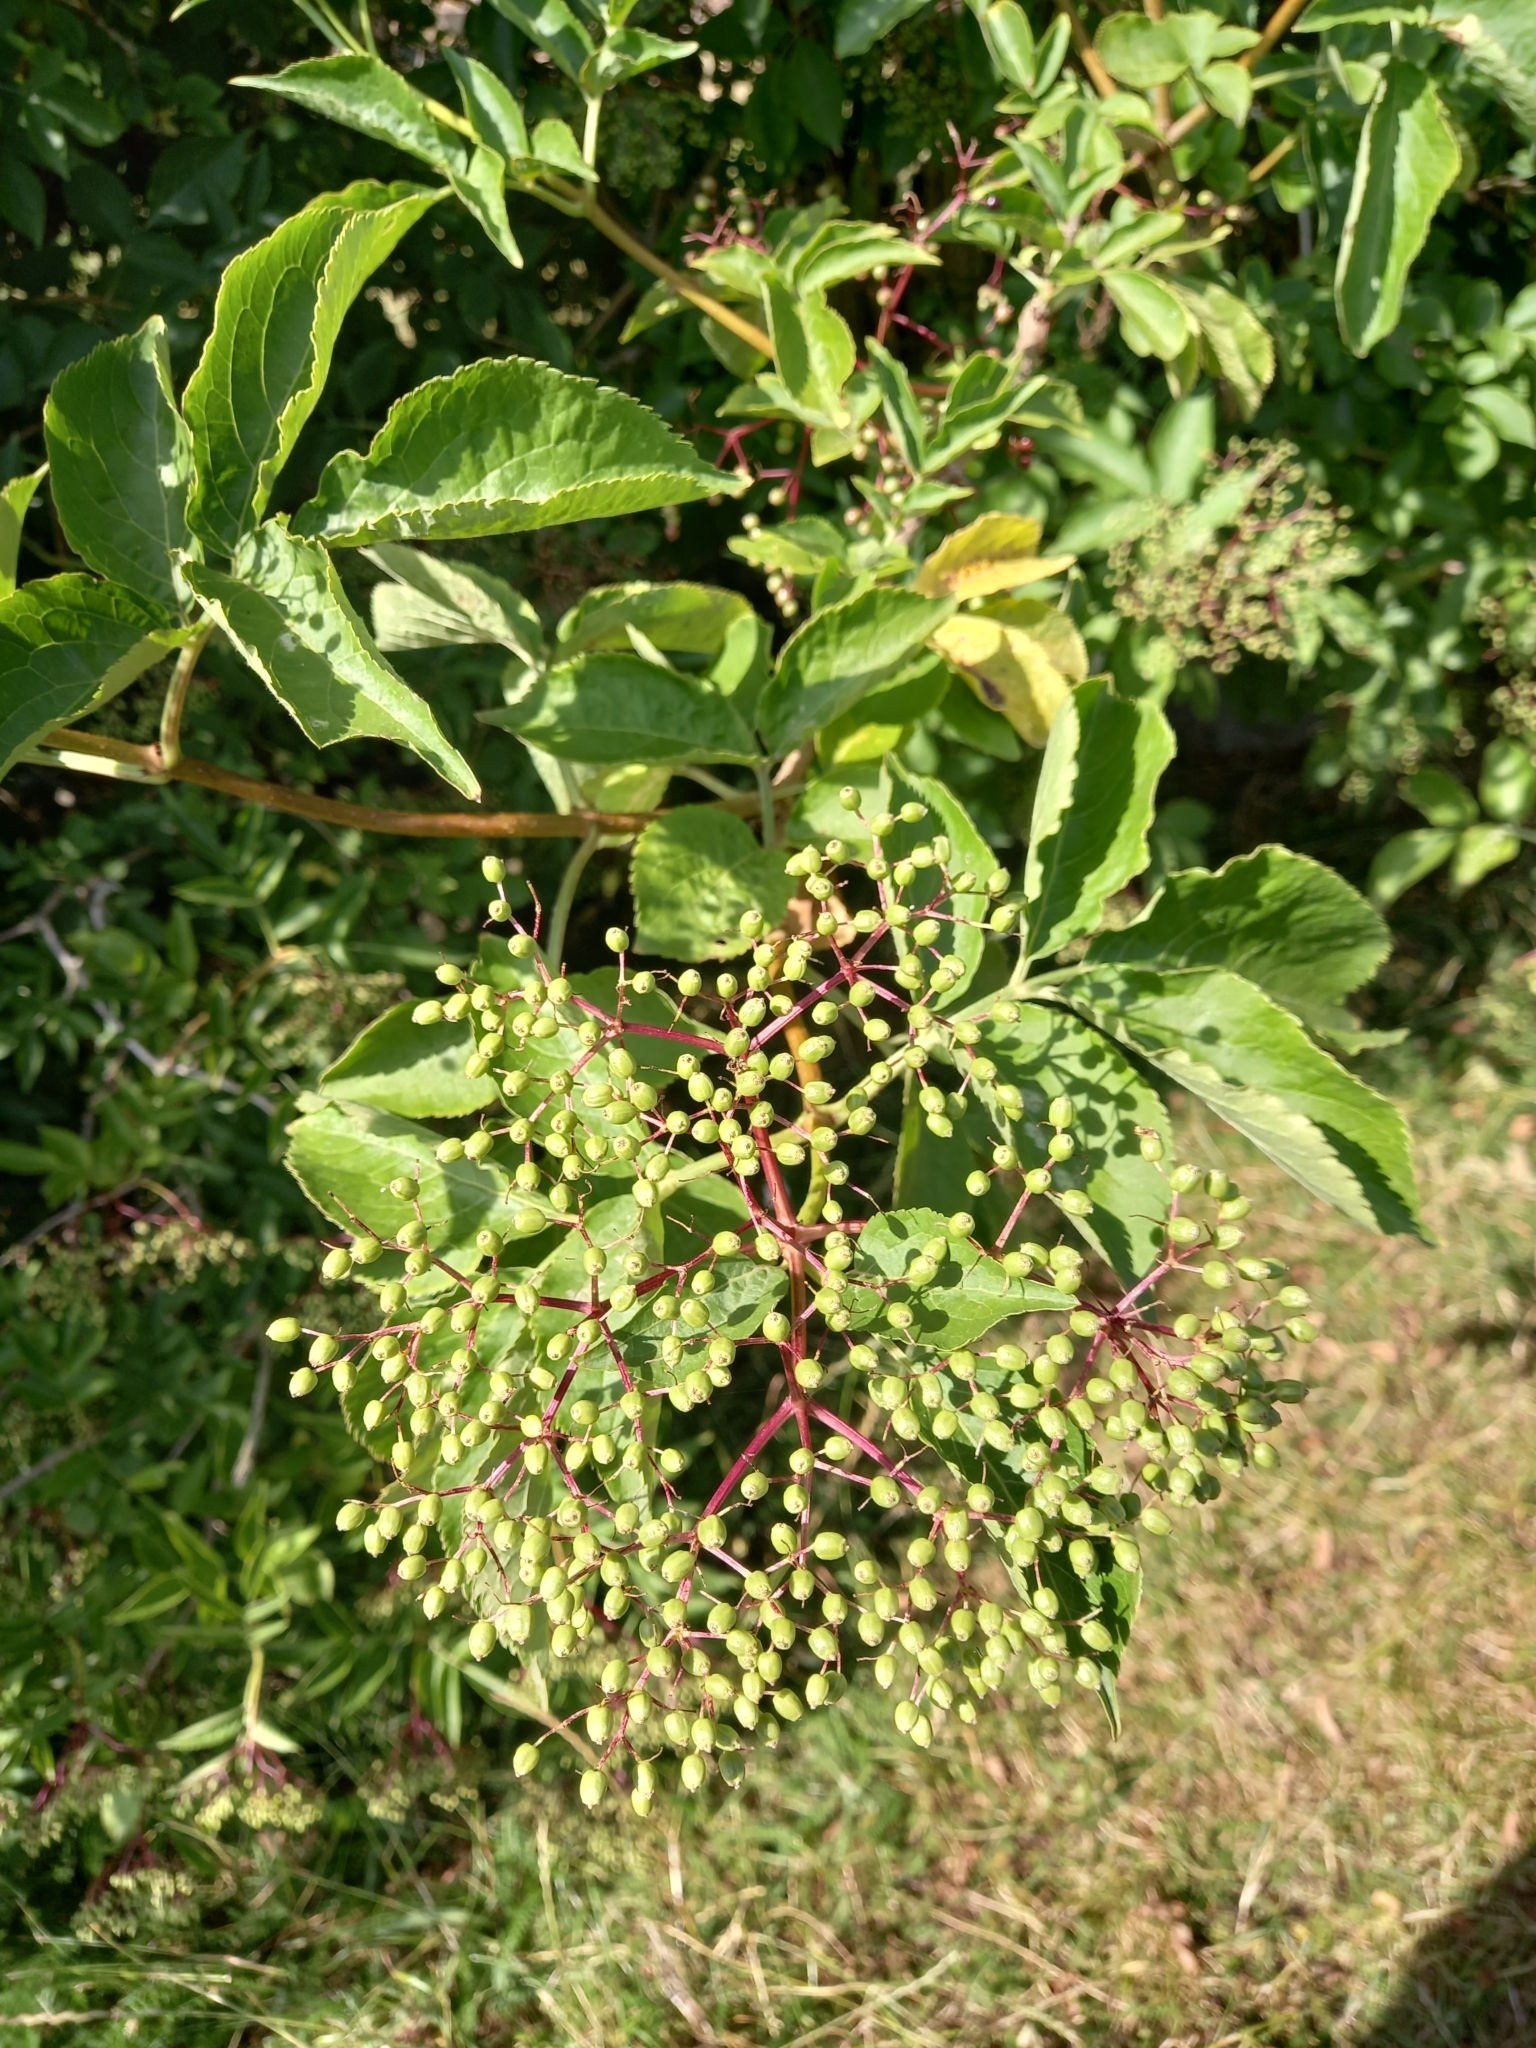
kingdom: Plantae
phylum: Tracheophyta
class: Magnoliopsida
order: Dipsacales
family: Viburnaceae
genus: Sambucus
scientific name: Sambucus nigra
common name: Elder
